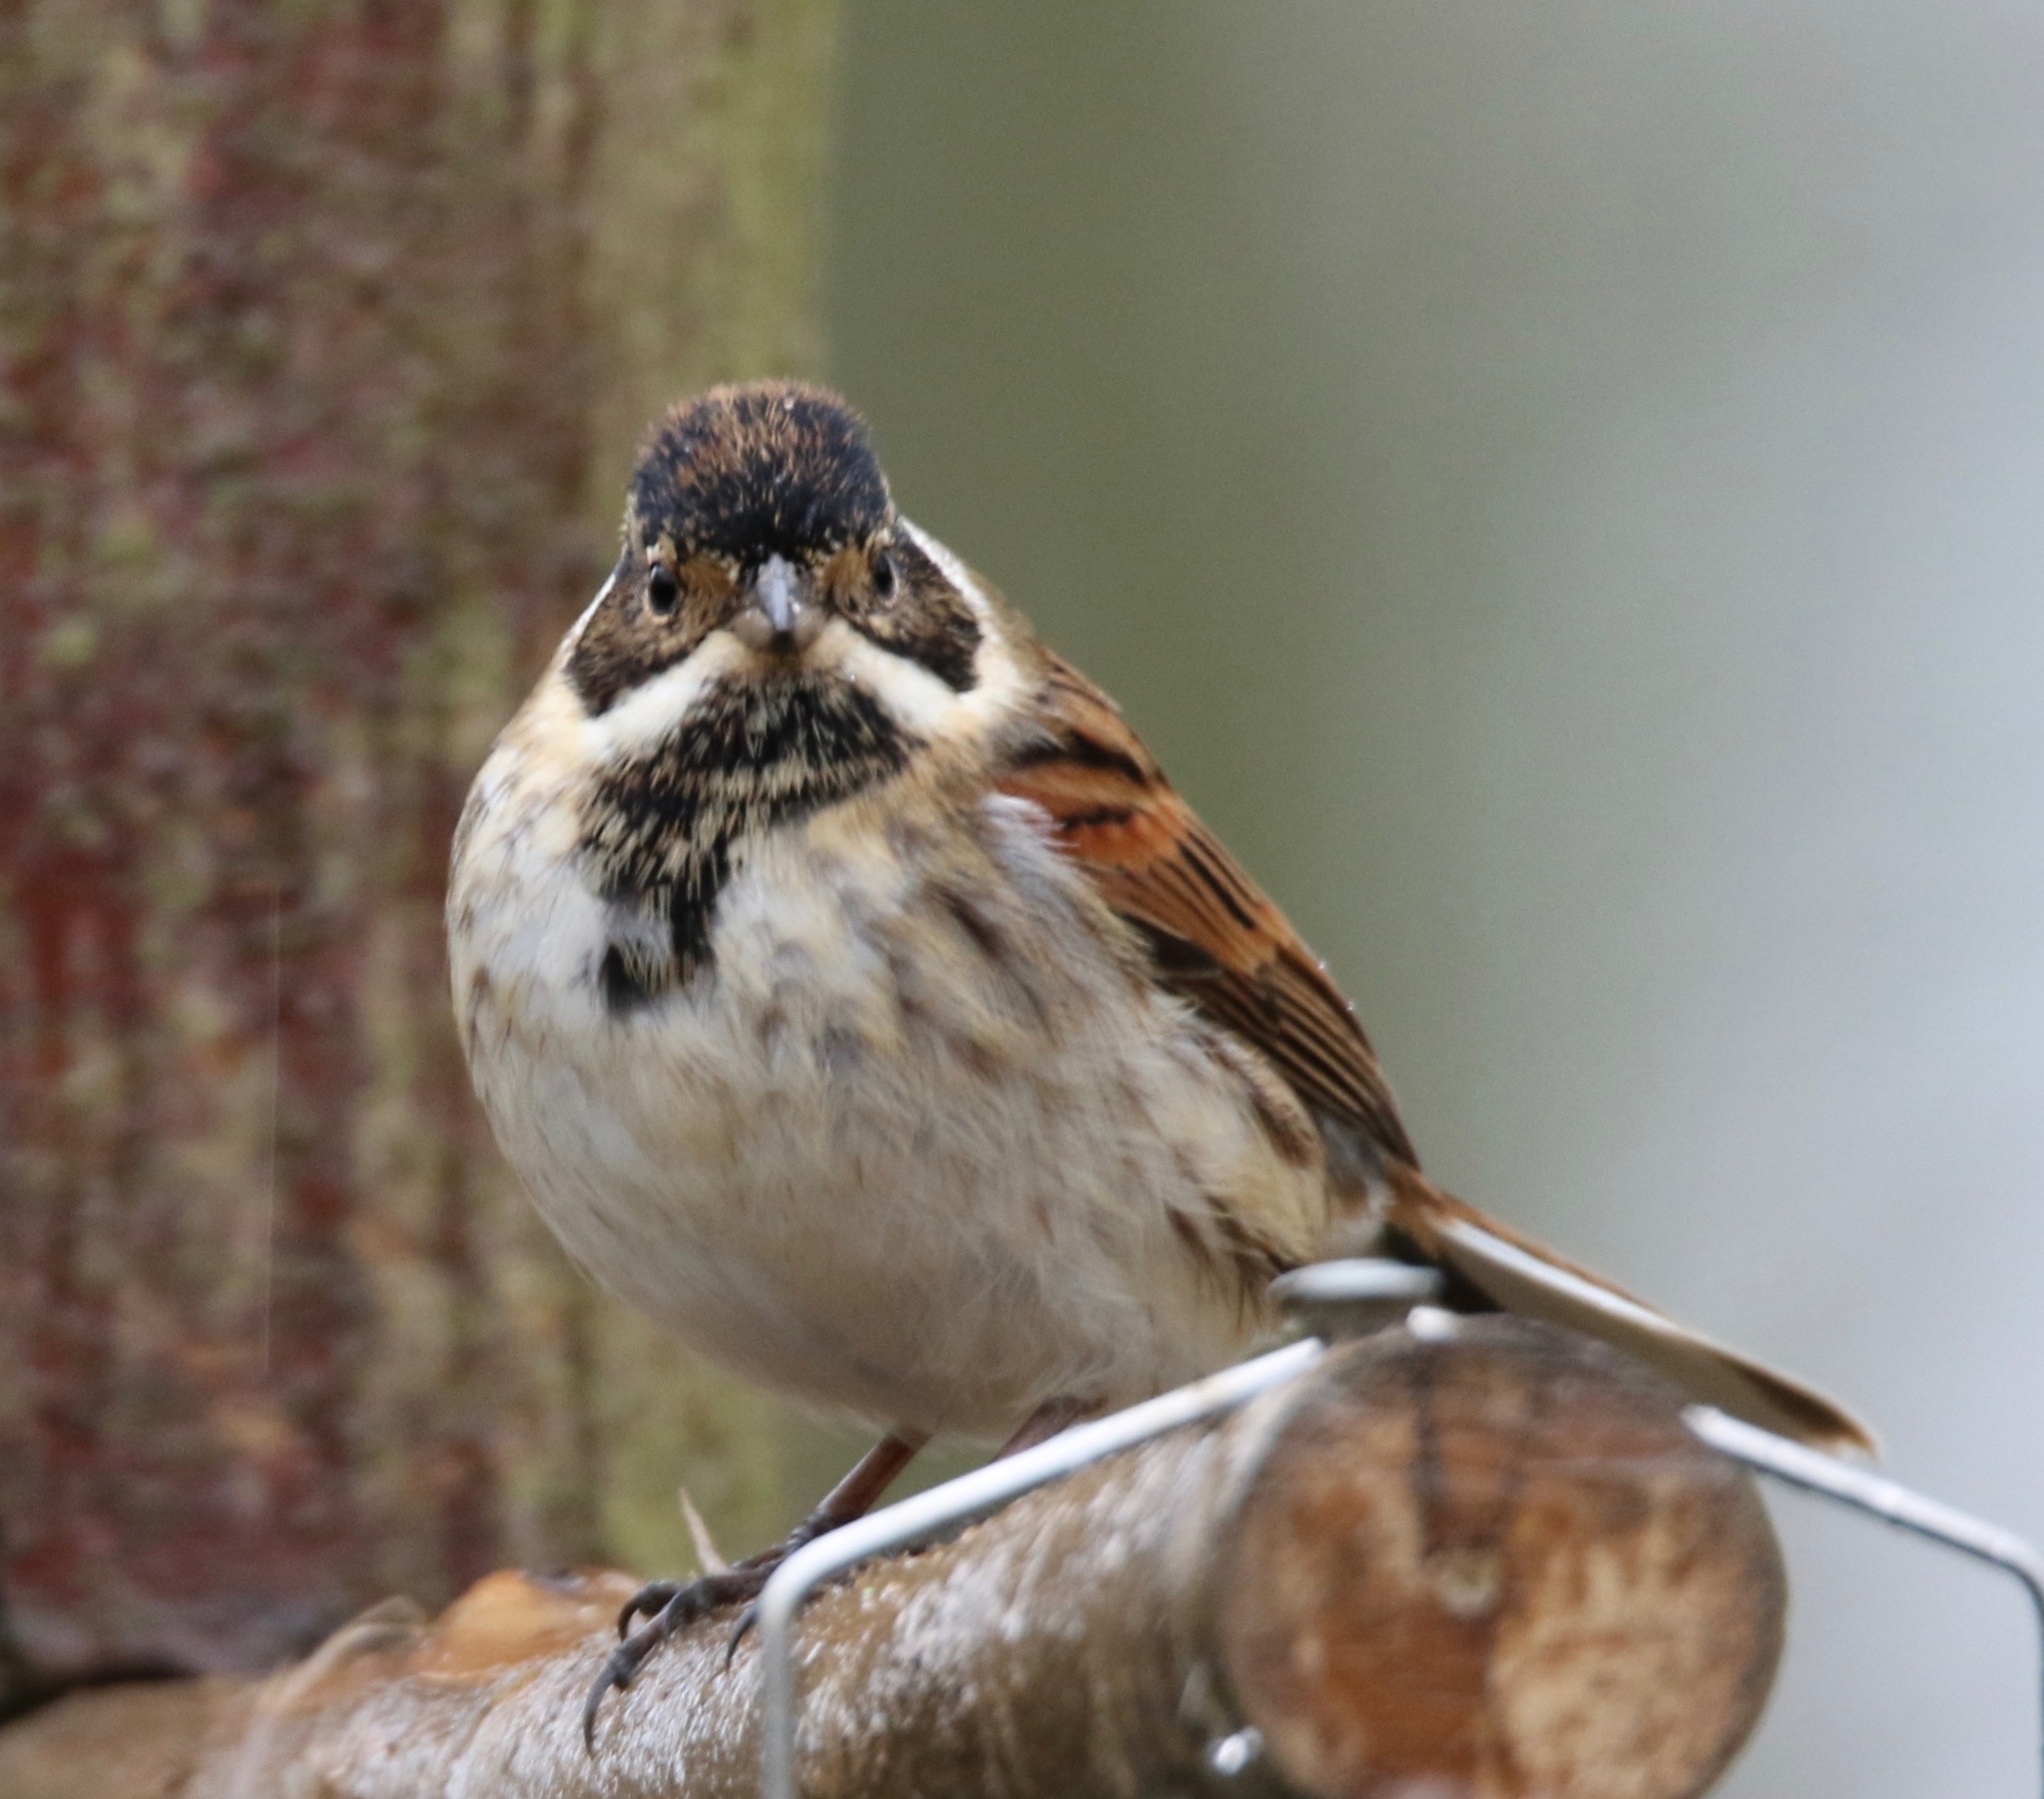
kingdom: Animalia
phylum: Chordata
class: Aves
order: Passeriformes
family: Emberizidae
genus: Emberiza
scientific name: Emberiza schoeniclus
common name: Reed bunting
